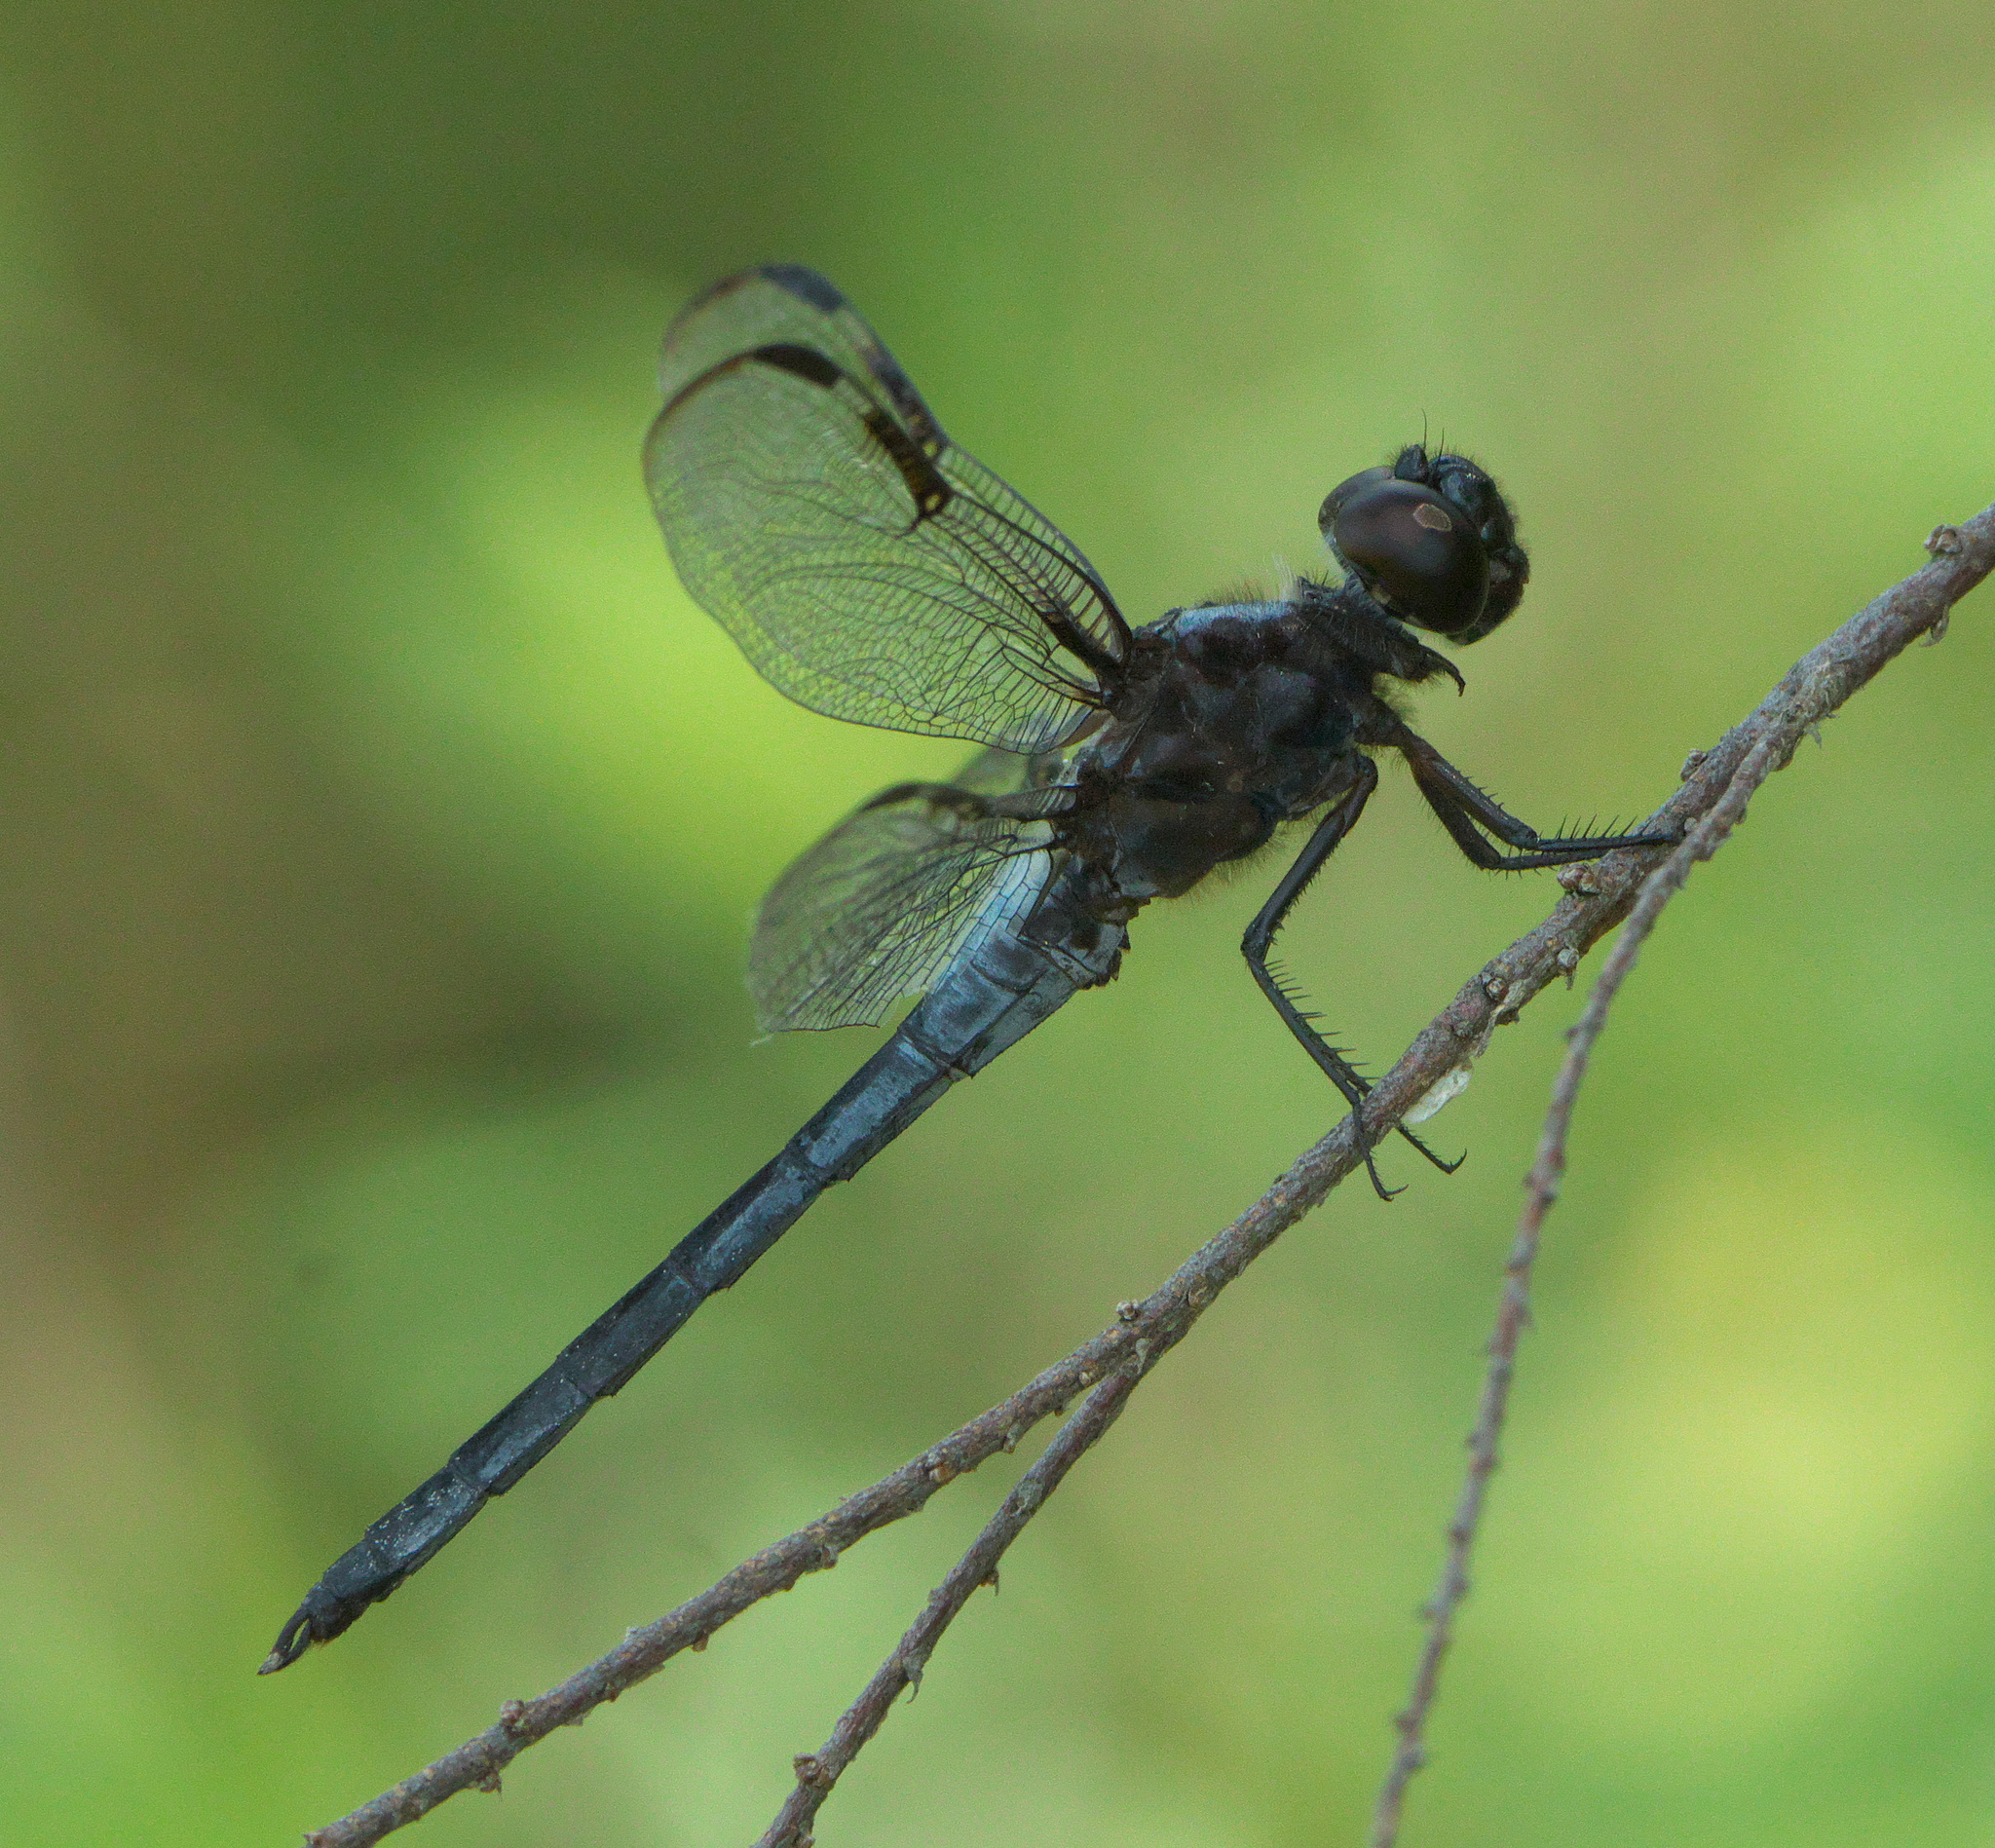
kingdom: Animalia
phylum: Arthropoda
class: Insecta
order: Odonata
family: Libellulidae
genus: Libellula
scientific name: Libellula axilena
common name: Bar-winged skimmer
